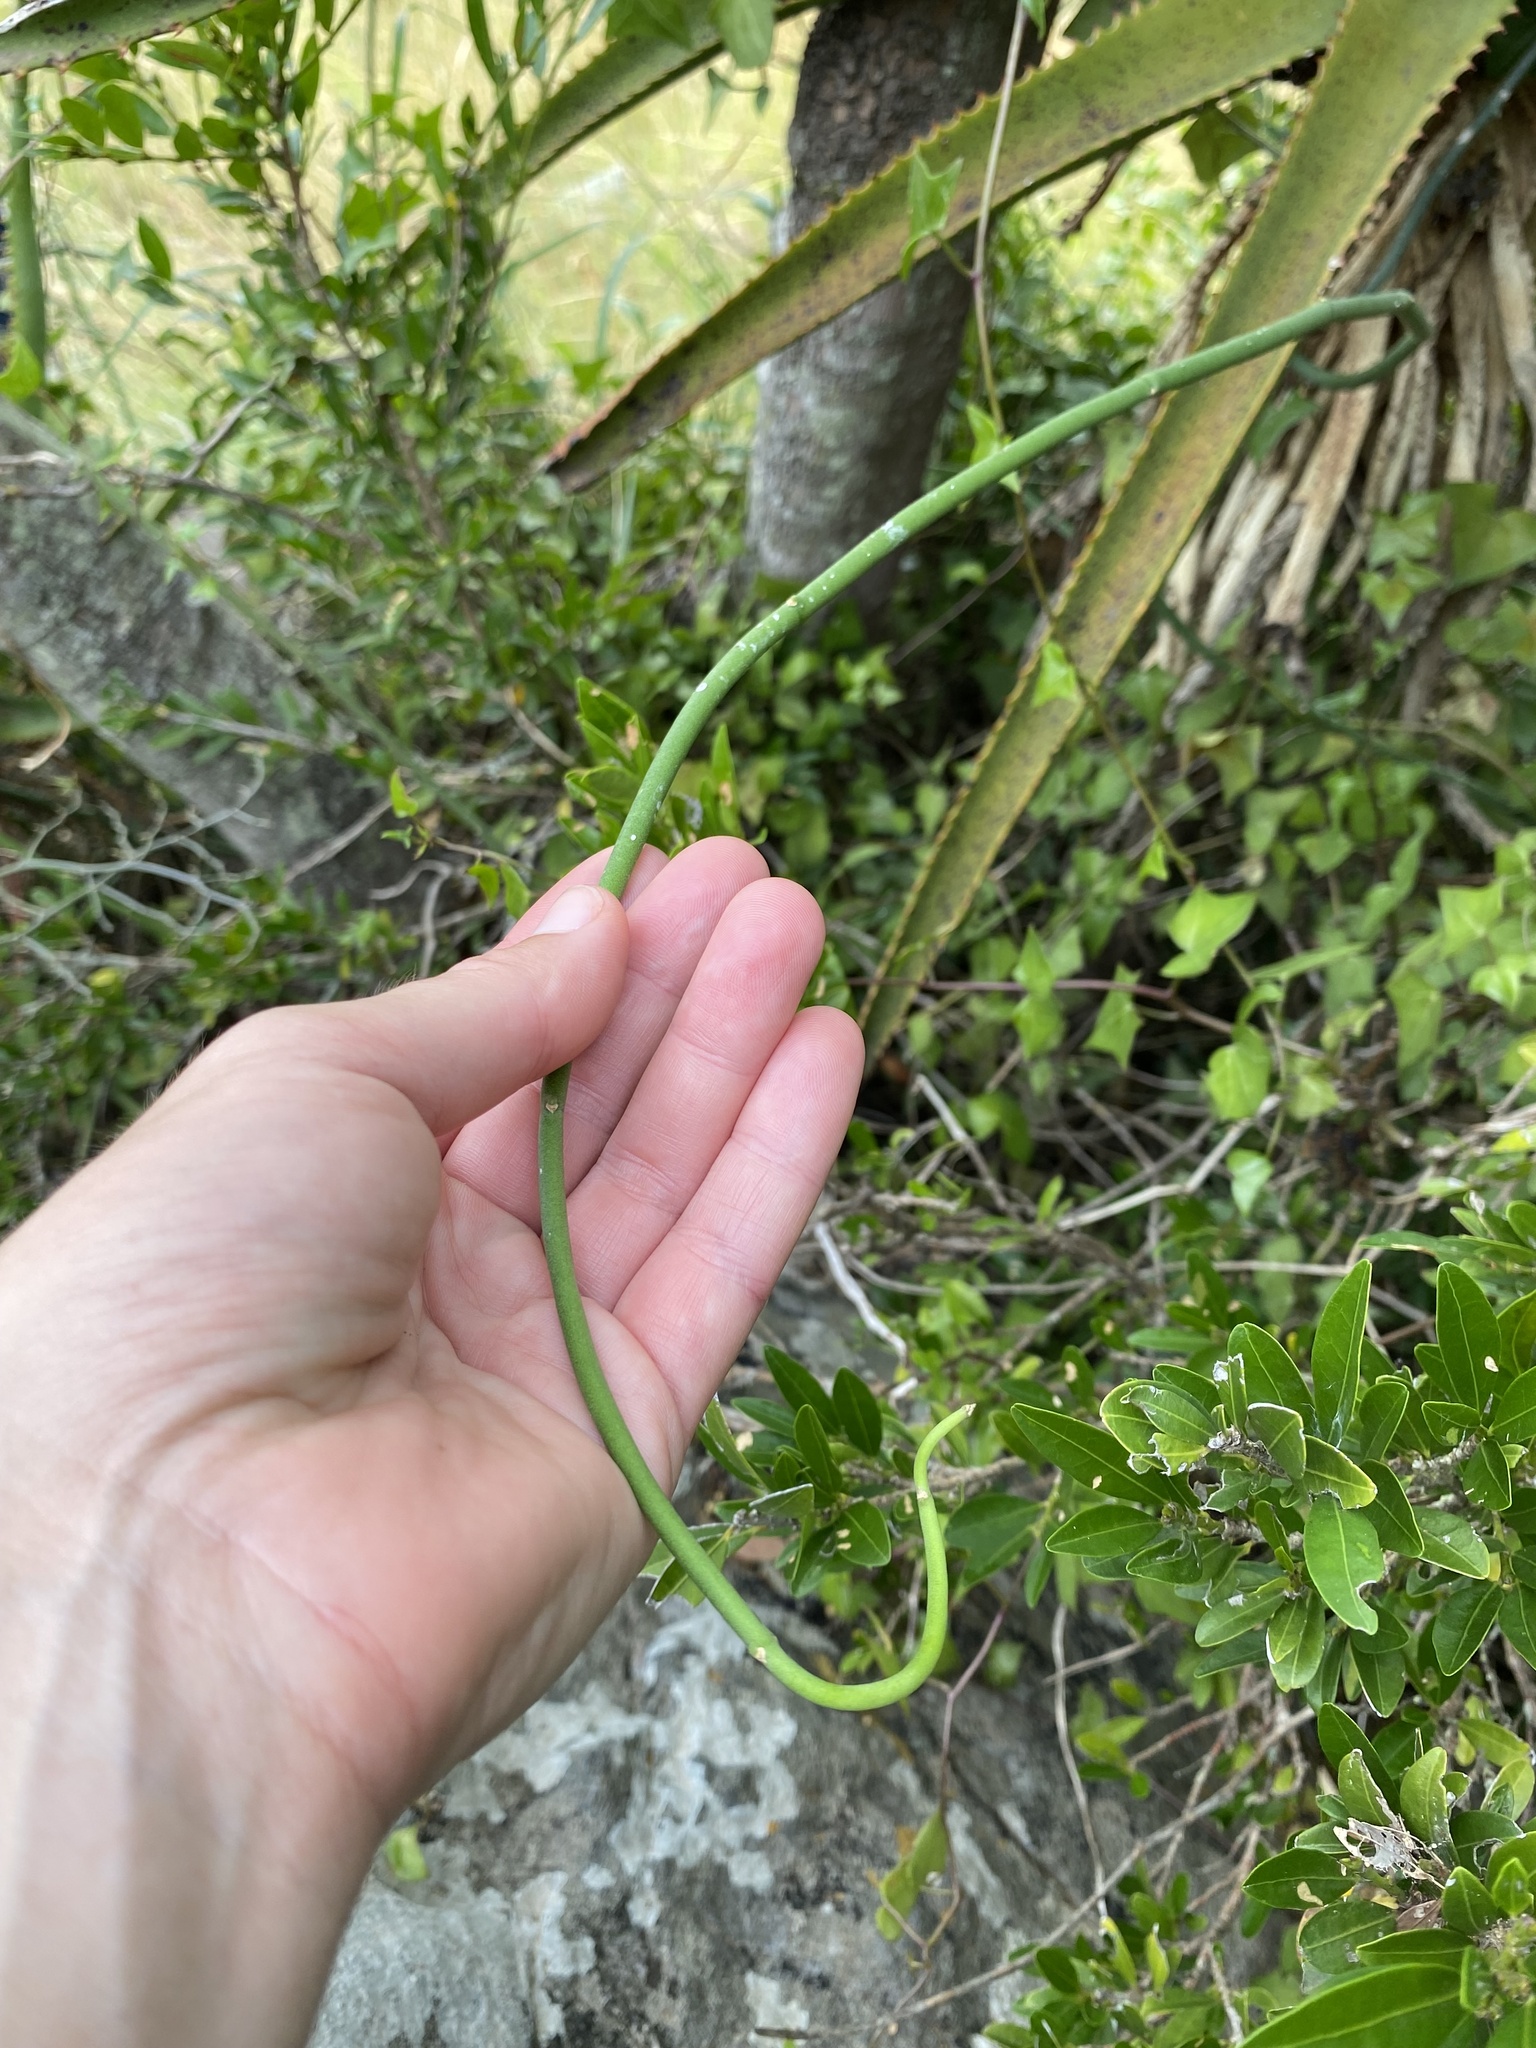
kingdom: Plantae
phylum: Tracheophyta
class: Magnoliopsida
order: Gentianales
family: Apocynaceae
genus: Cynanchum
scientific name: Cynanchum viminale
